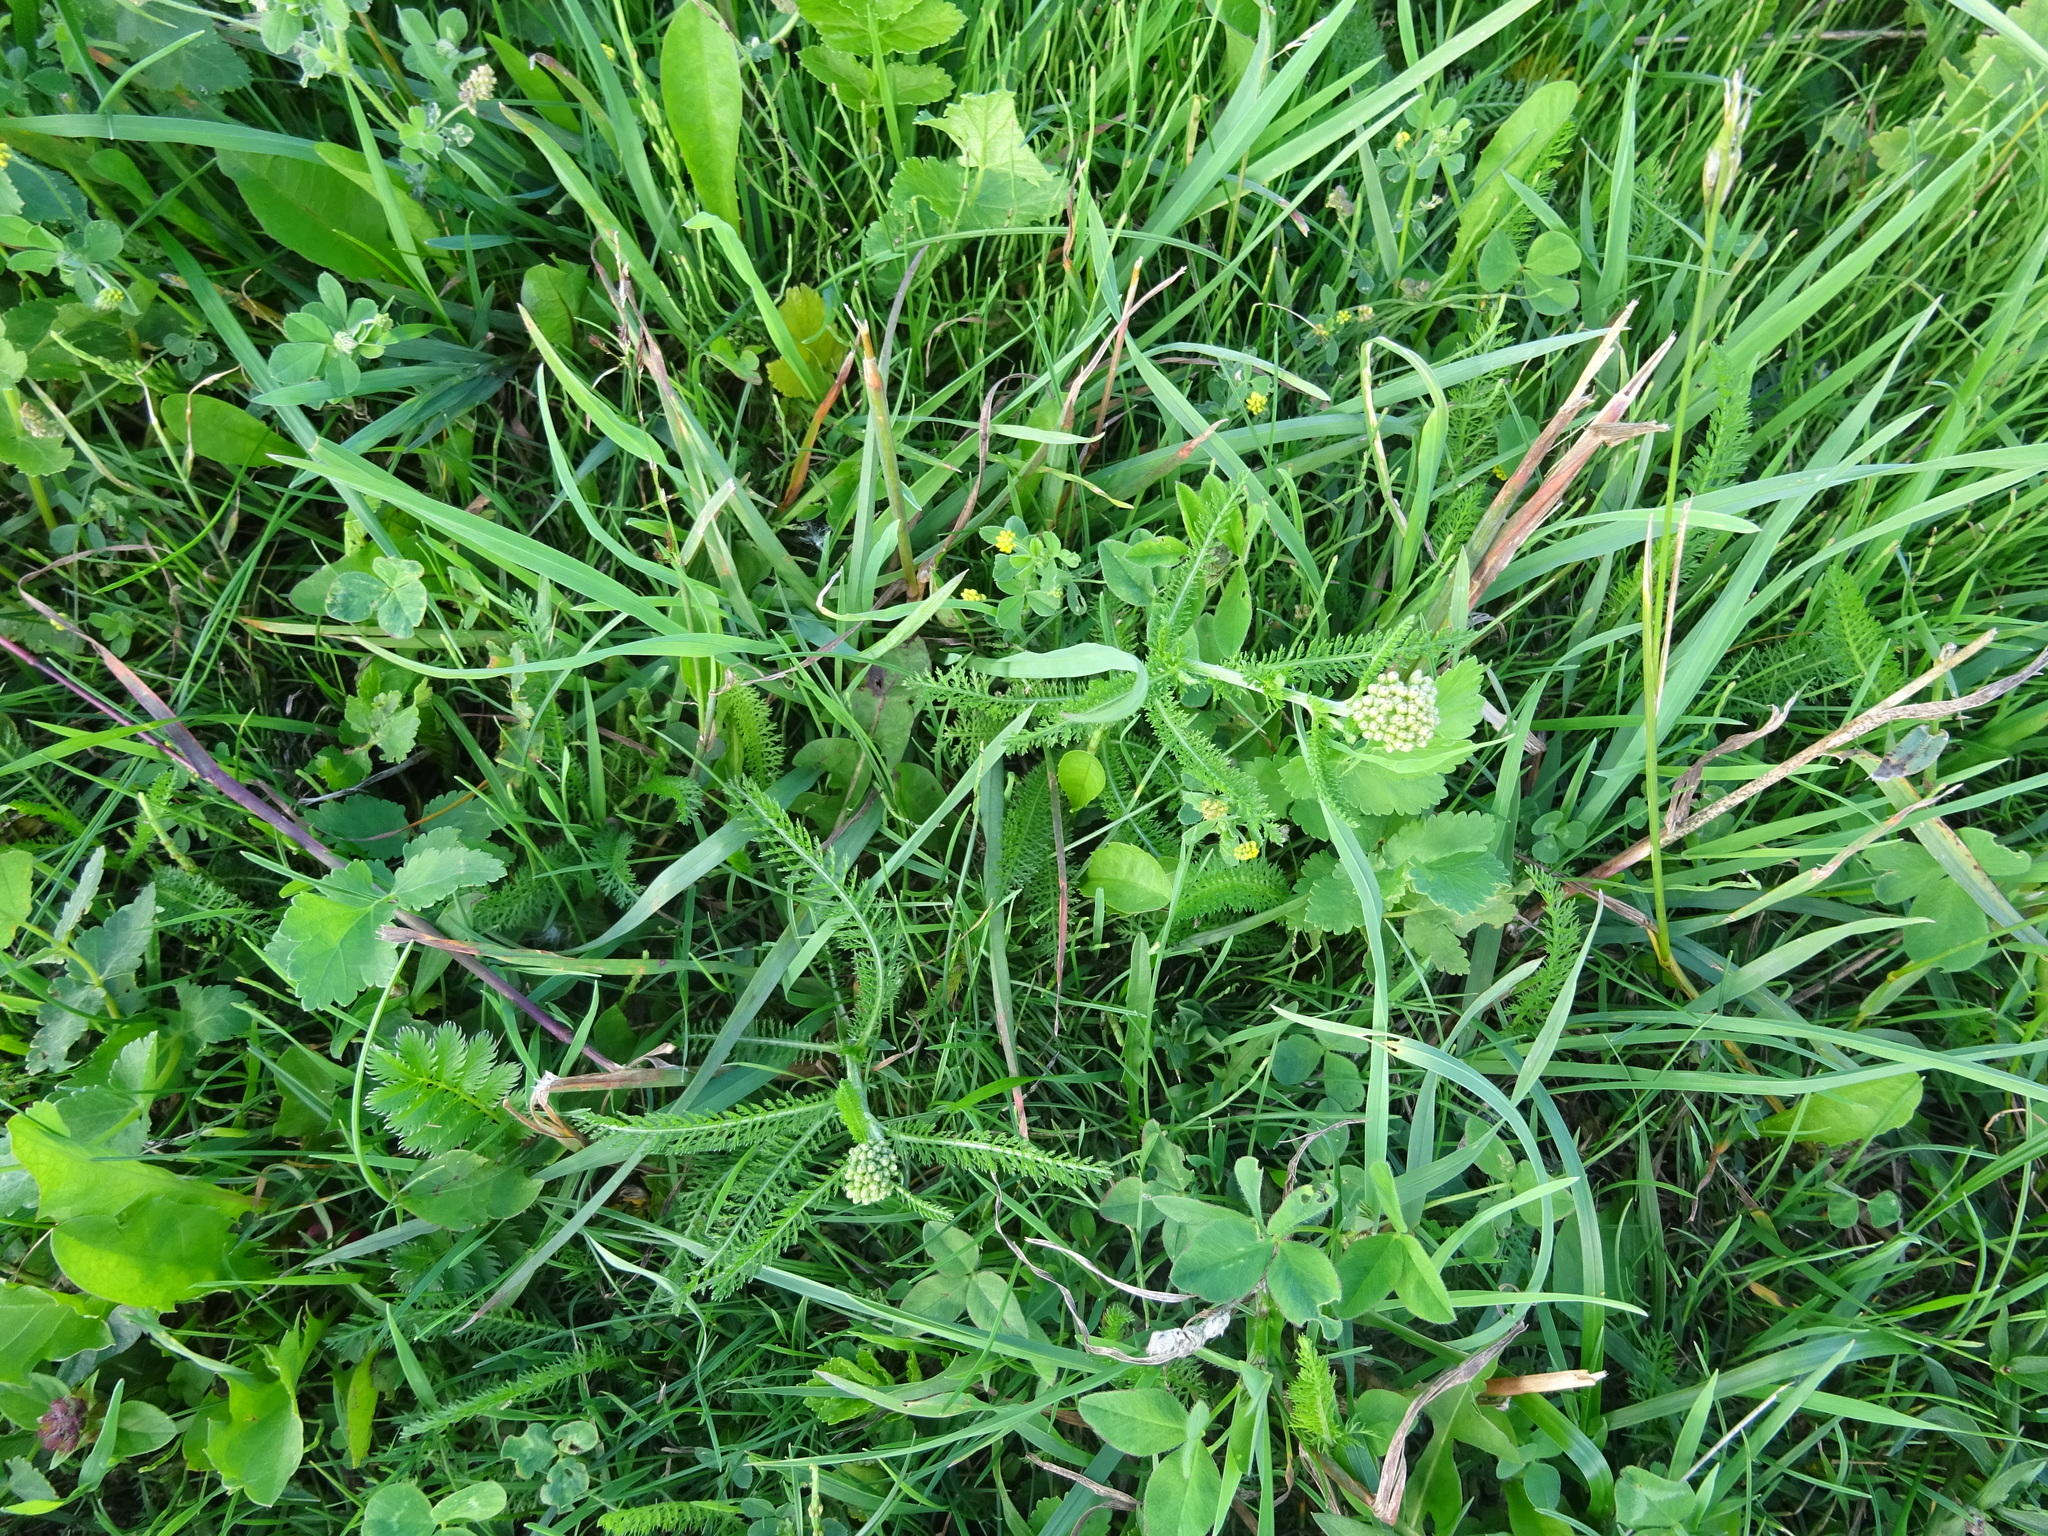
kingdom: Plantae
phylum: Tracheophyta
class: Magnoliopsida
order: Asterales
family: Asteraceae
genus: Achillea
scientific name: Achillea millefolium
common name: Yarrow
